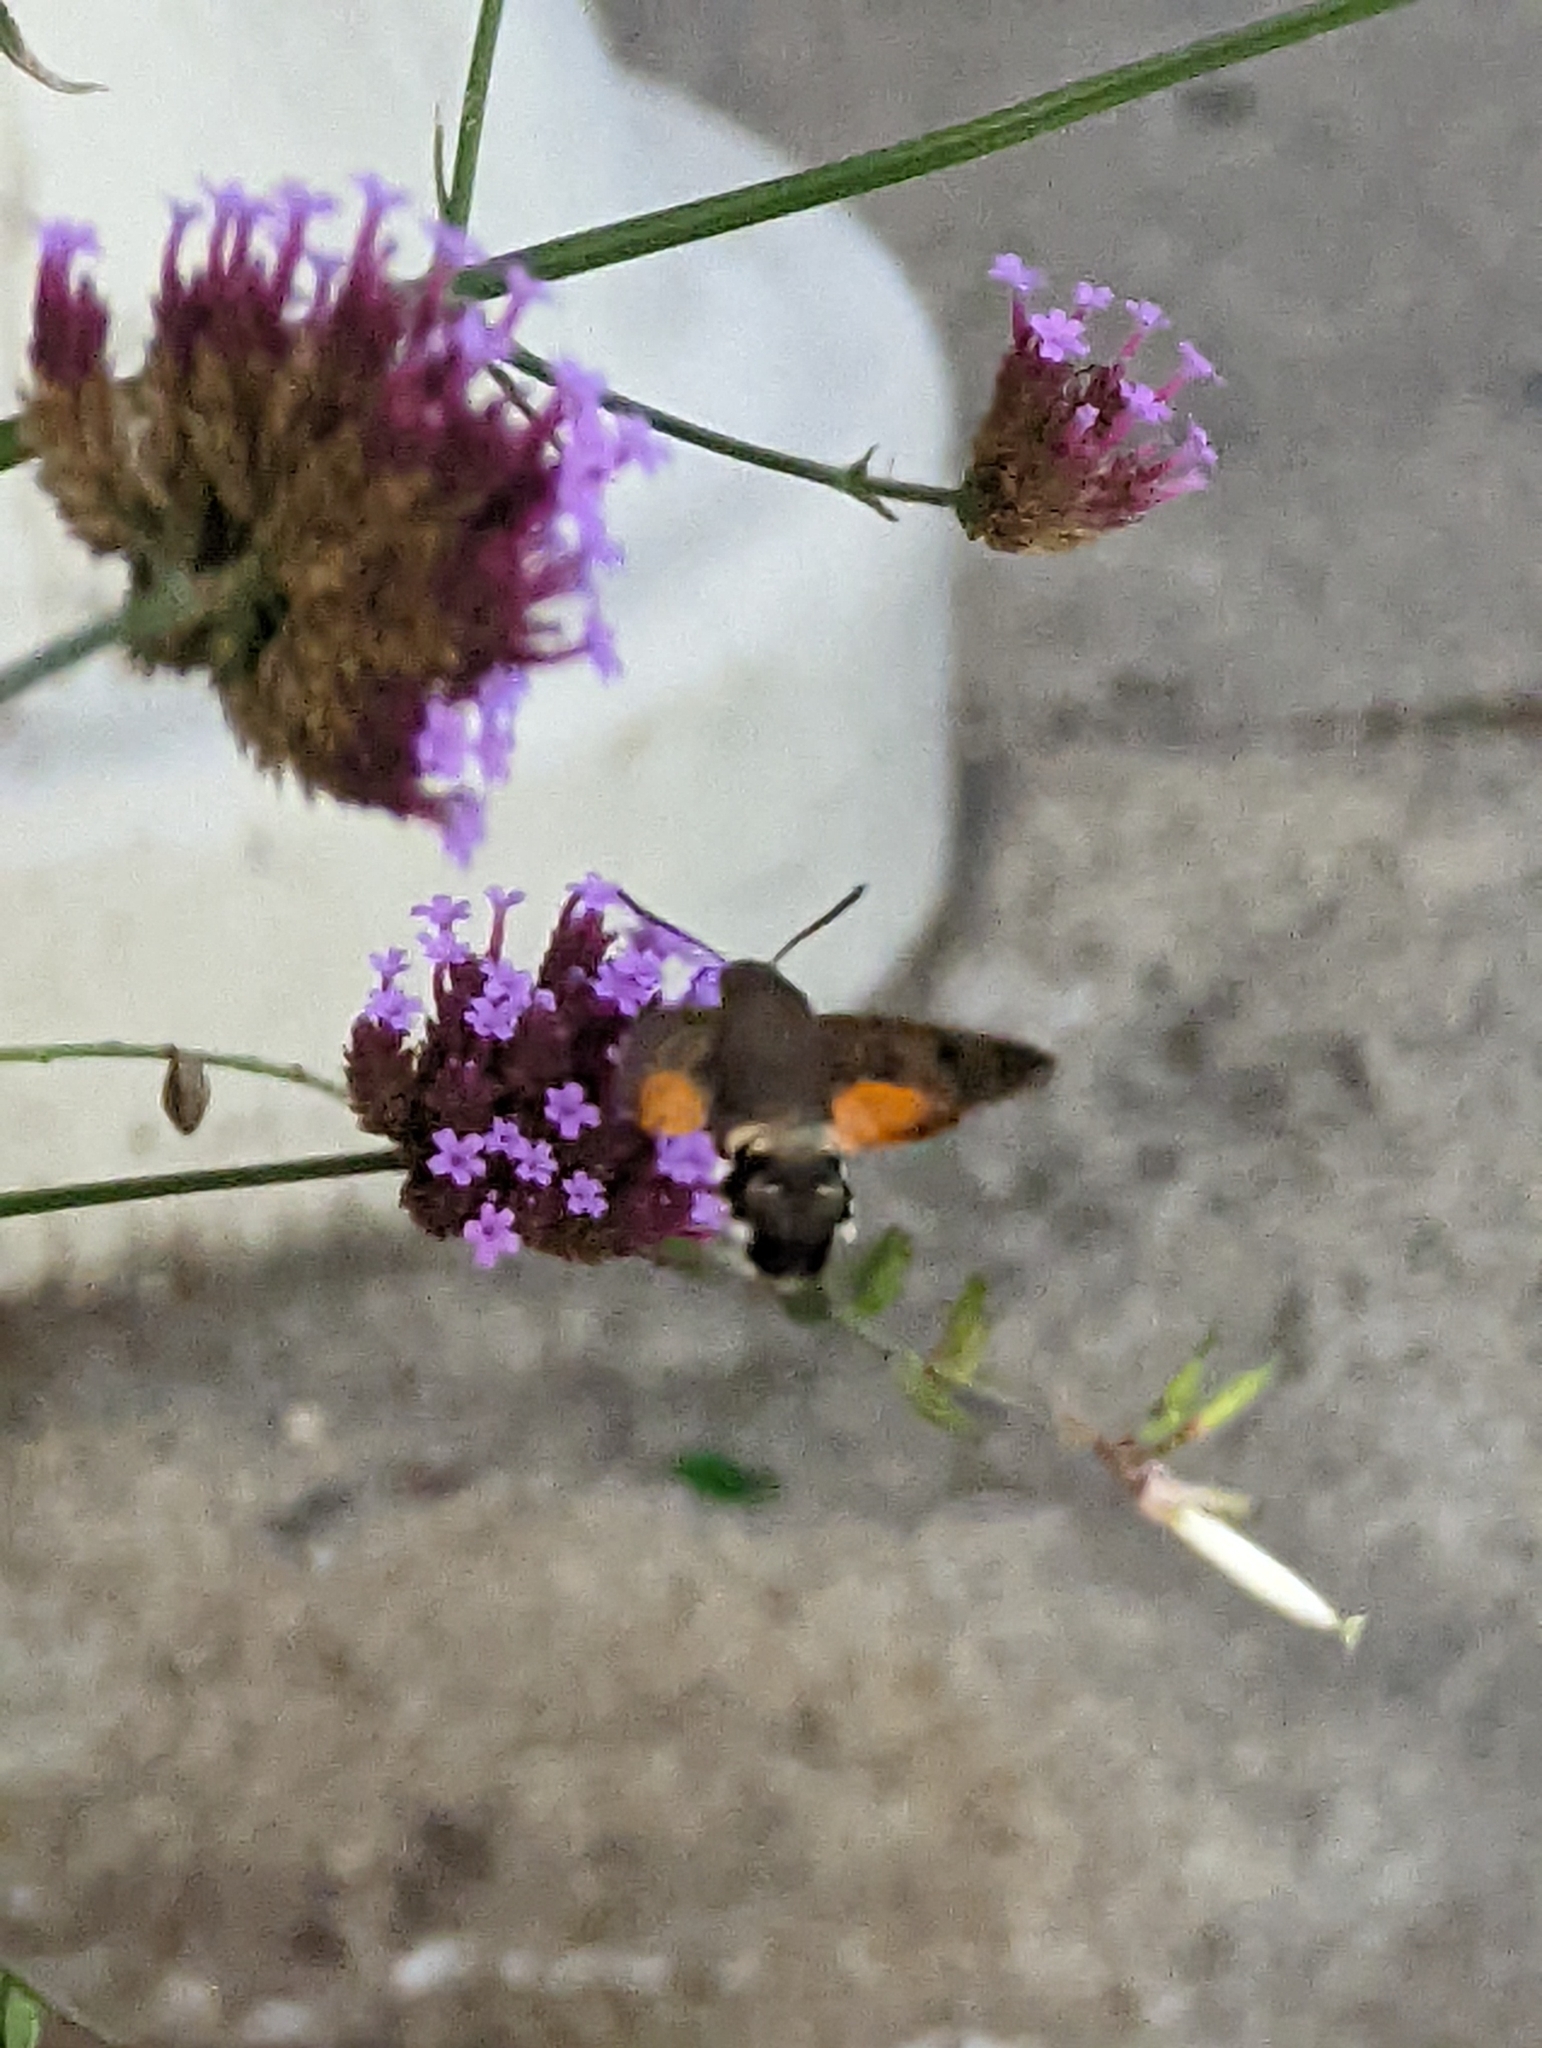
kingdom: Animalia
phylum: Arthropoda
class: Insecta
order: Lepidoptera
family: Sphingidae
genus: Macroglossum
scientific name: Macroglossum stellatarum
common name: Humming-bird hawk-moth
